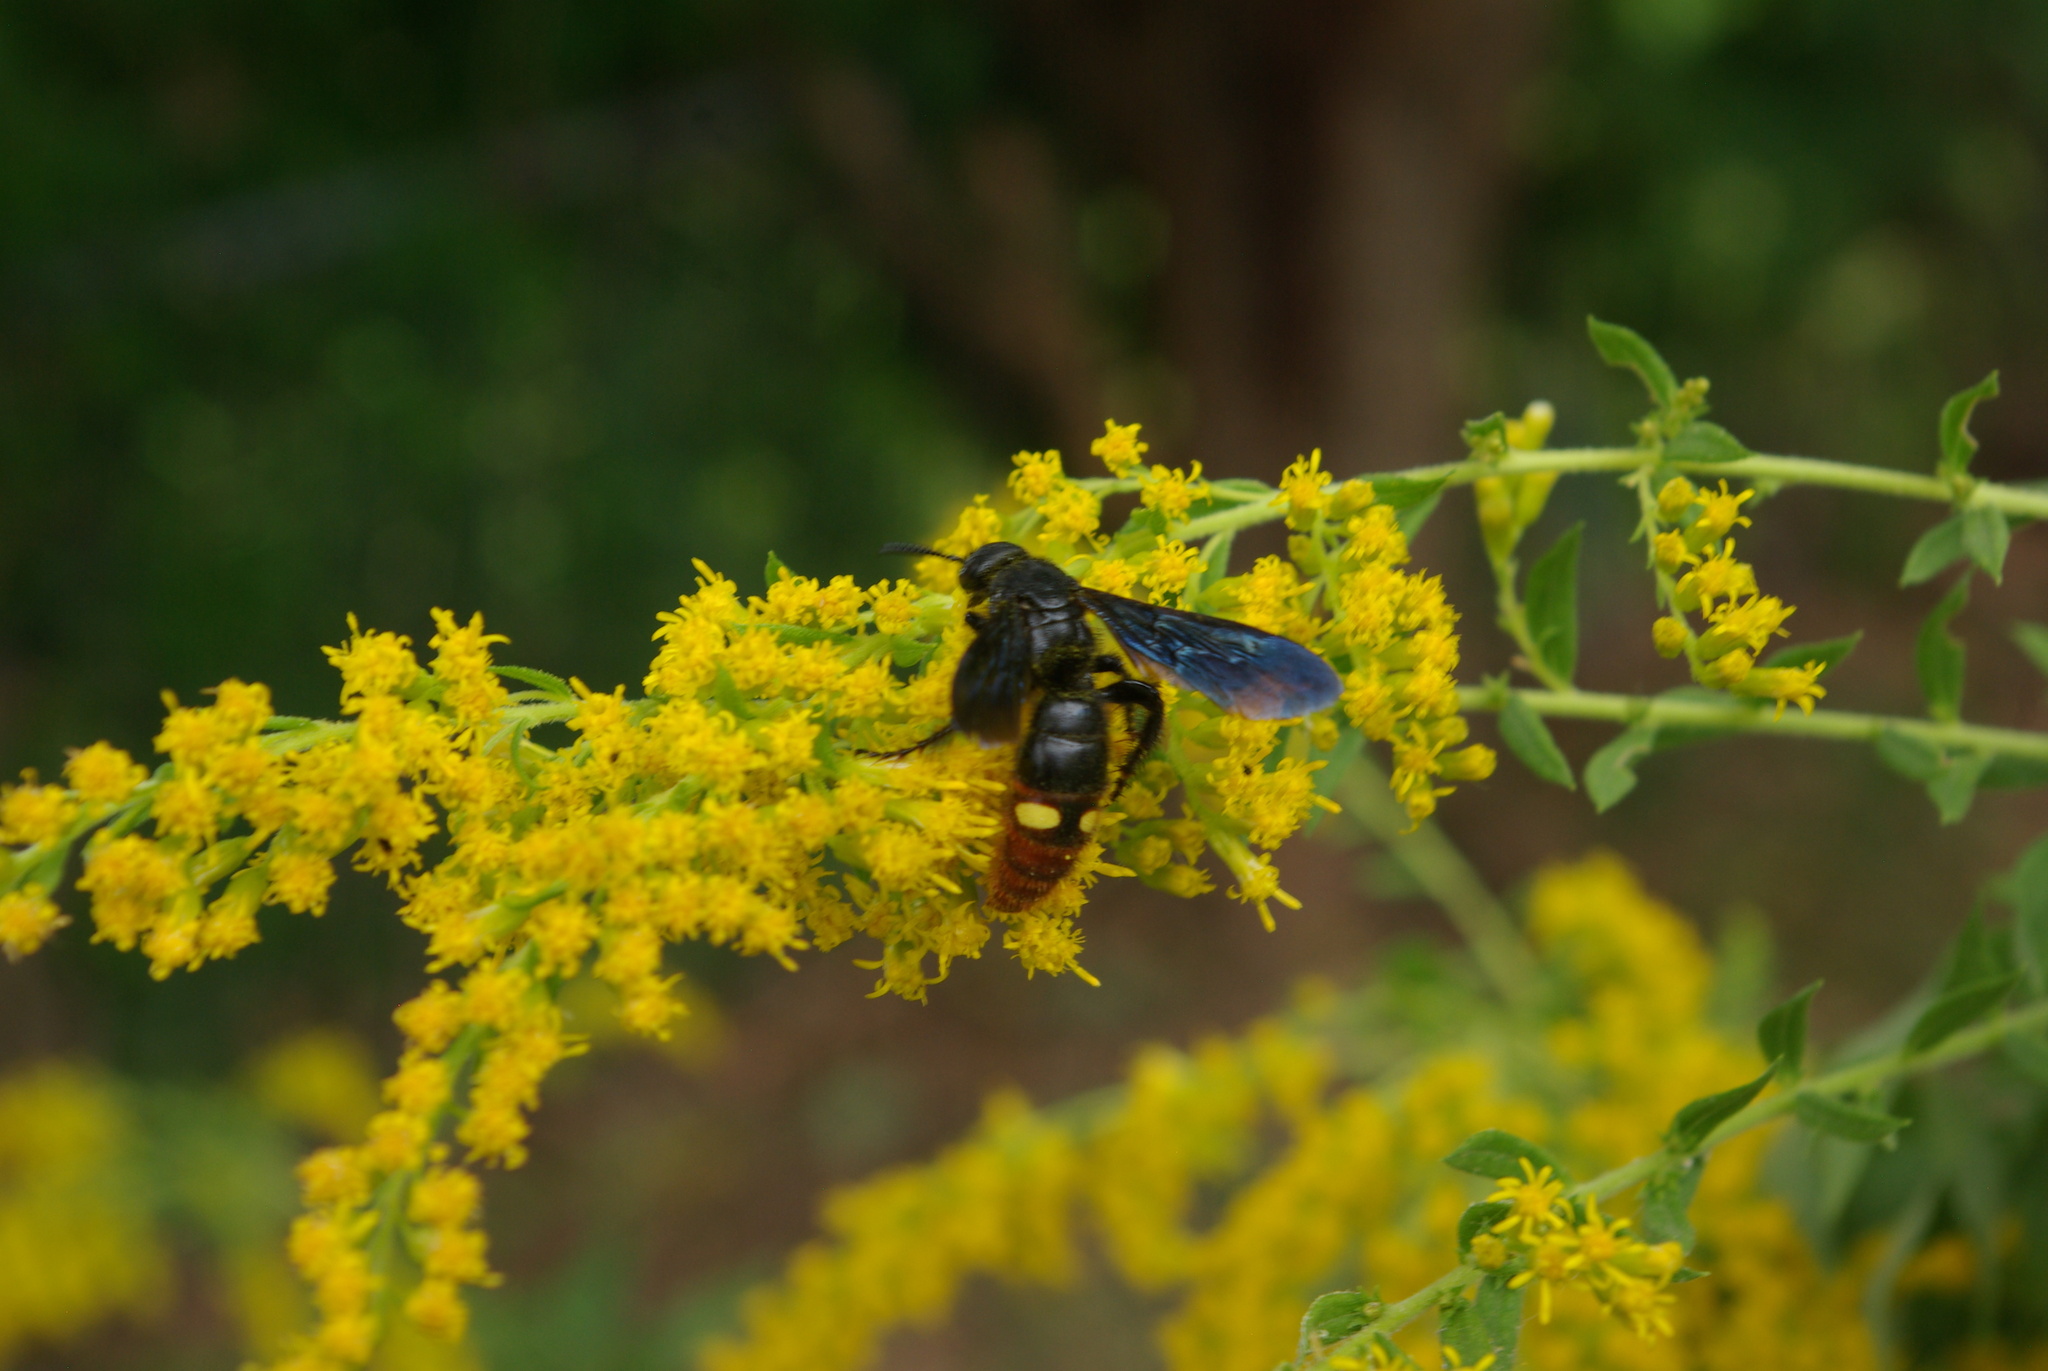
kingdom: Animalia
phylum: Arthropoda
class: Insecta
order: Hymenoptera
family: Scoliidae
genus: Scolia
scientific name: Scolia dubia
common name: Blue-winged scoliid wasp
